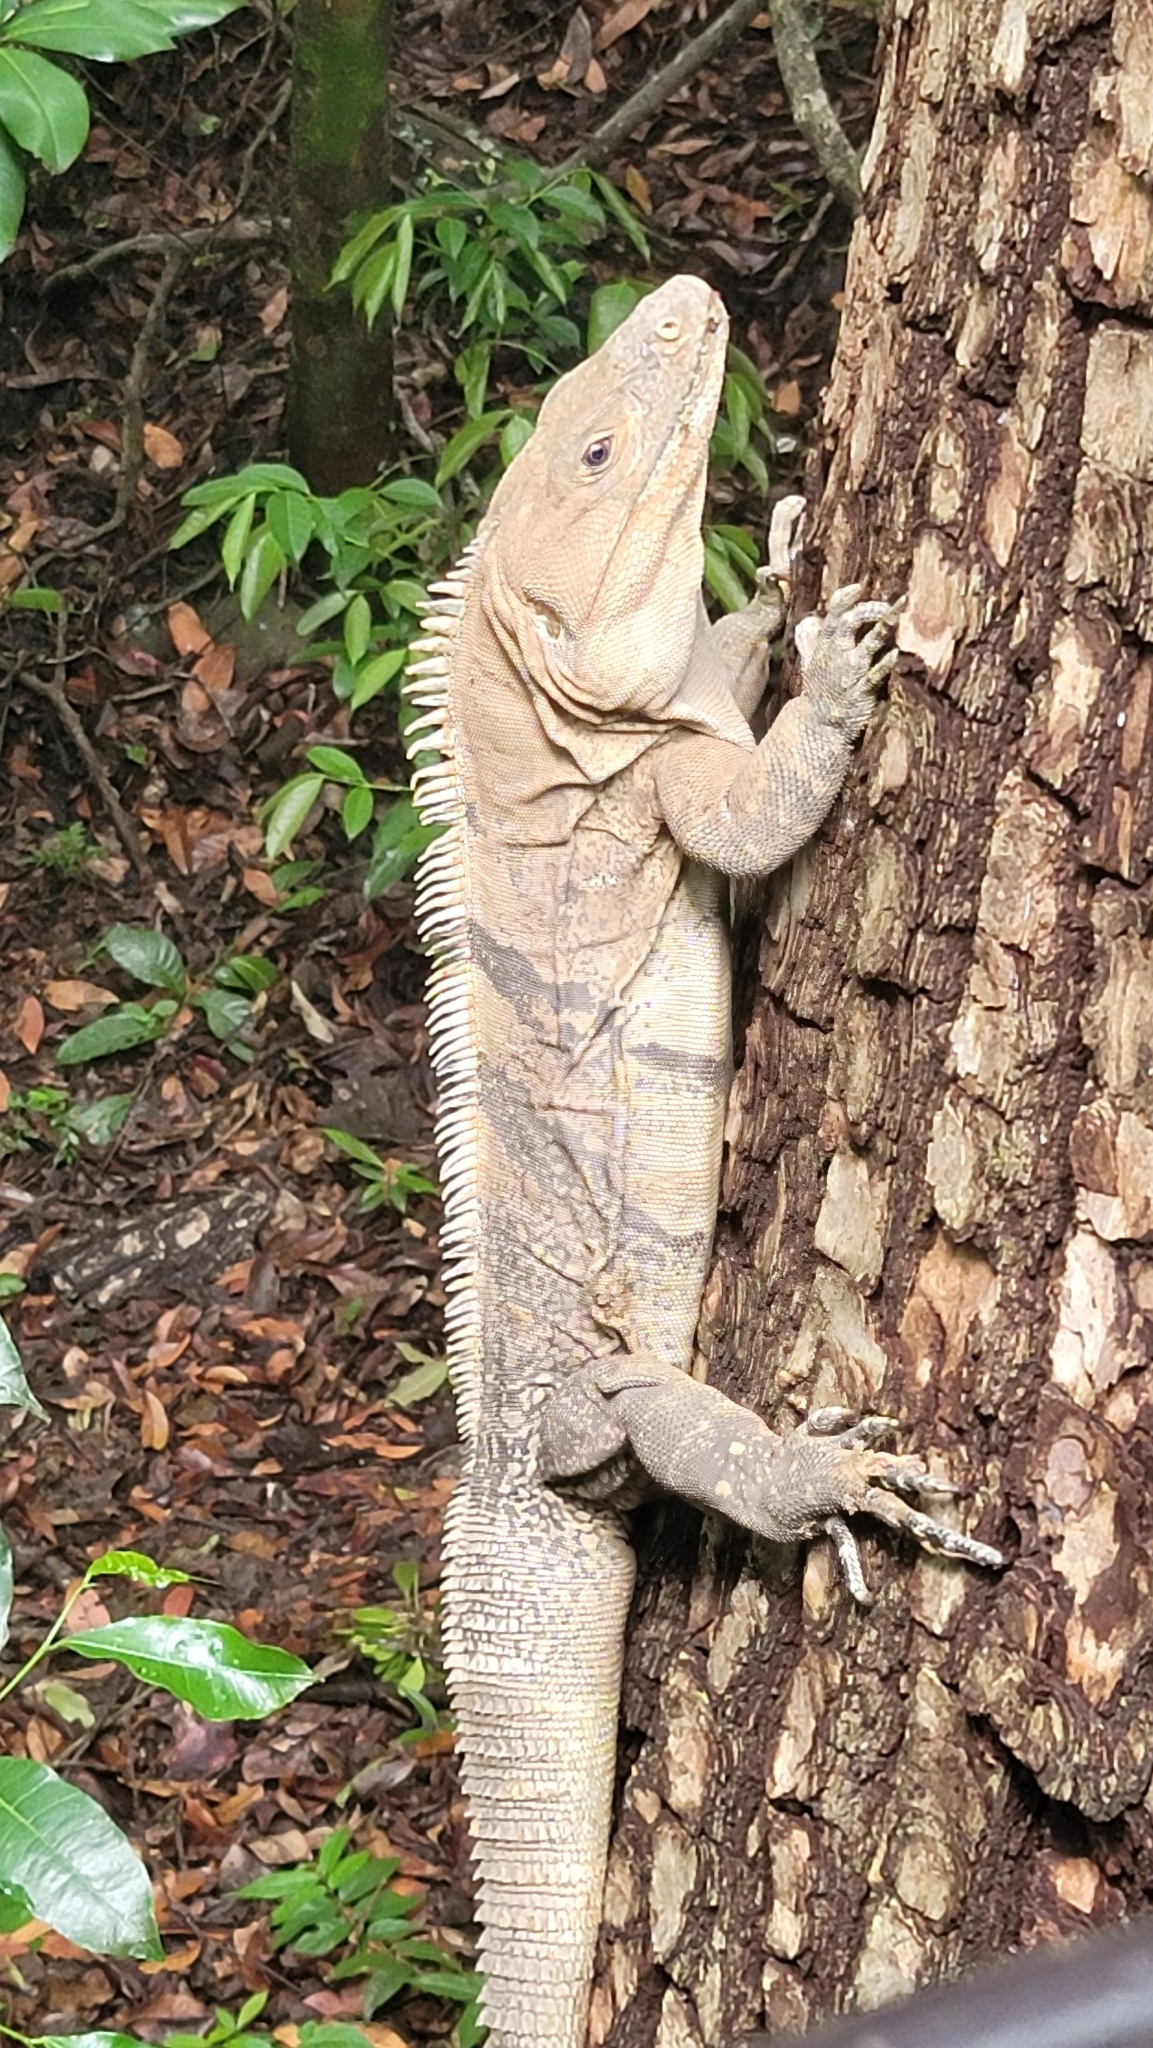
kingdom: Animalia
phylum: Chordata
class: Squamata
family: Iguanidae
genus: Ctenosaura
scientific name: Ctenosaura similis
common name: Black spiny-tailed iguana
